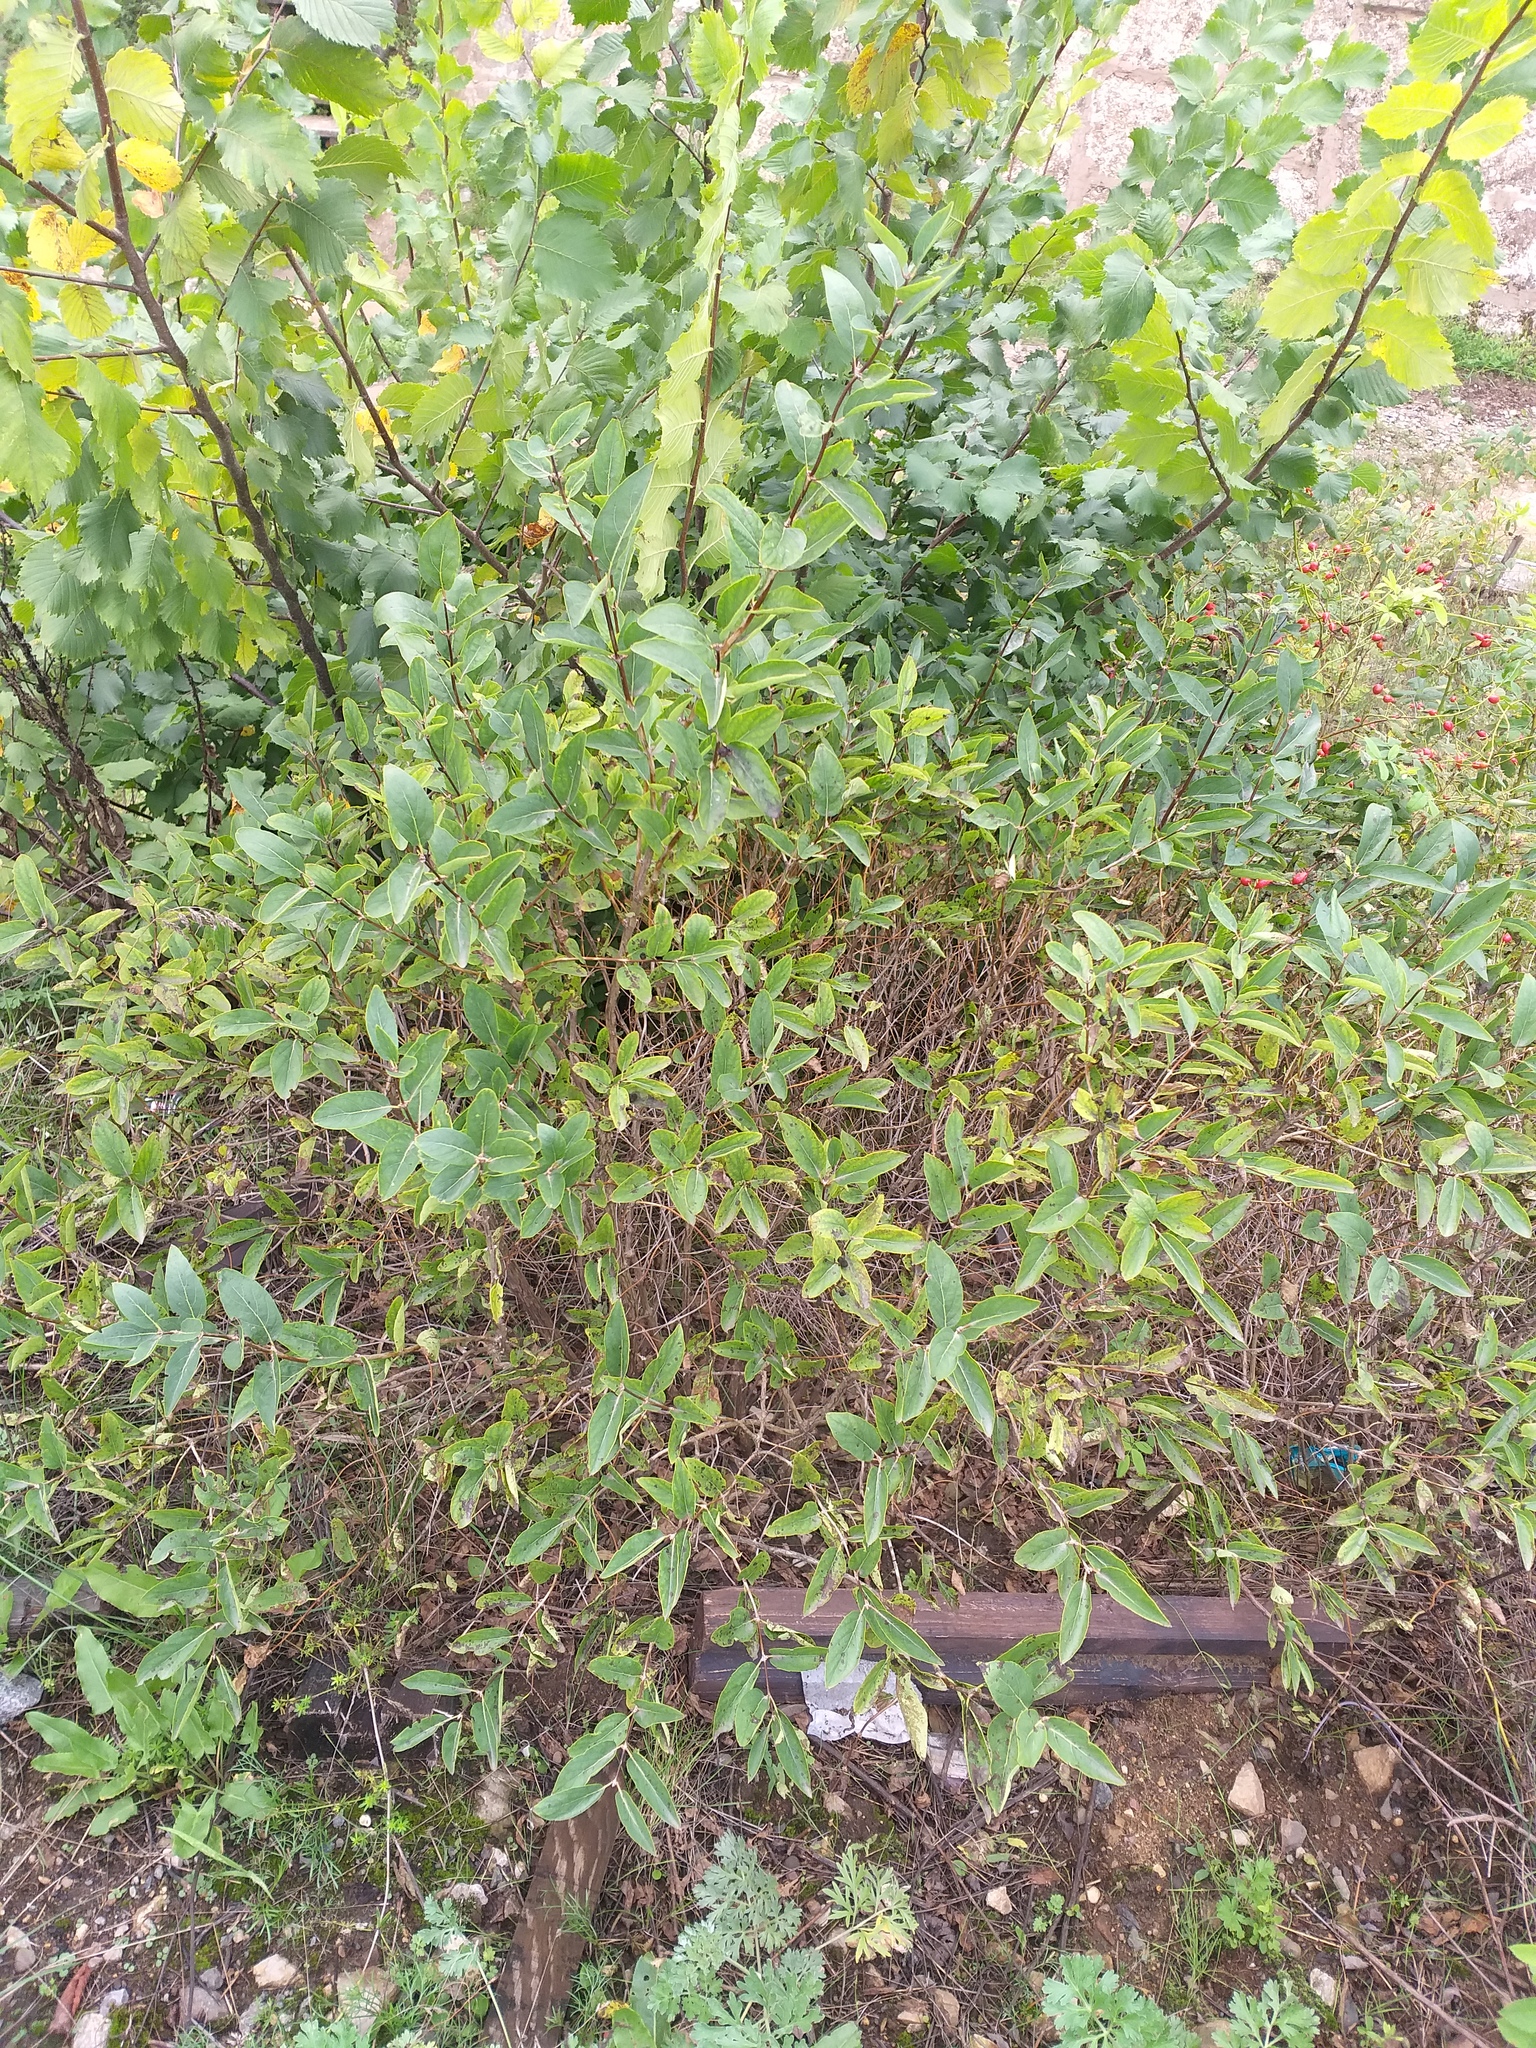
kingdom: Plantae
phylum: Tracheophyta
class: Magnoliopsida
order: Dipsacales
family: Caprifoliaceae
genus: Lonicera
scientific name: Lonicera tatarica
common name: Tatarian honeysuckle
